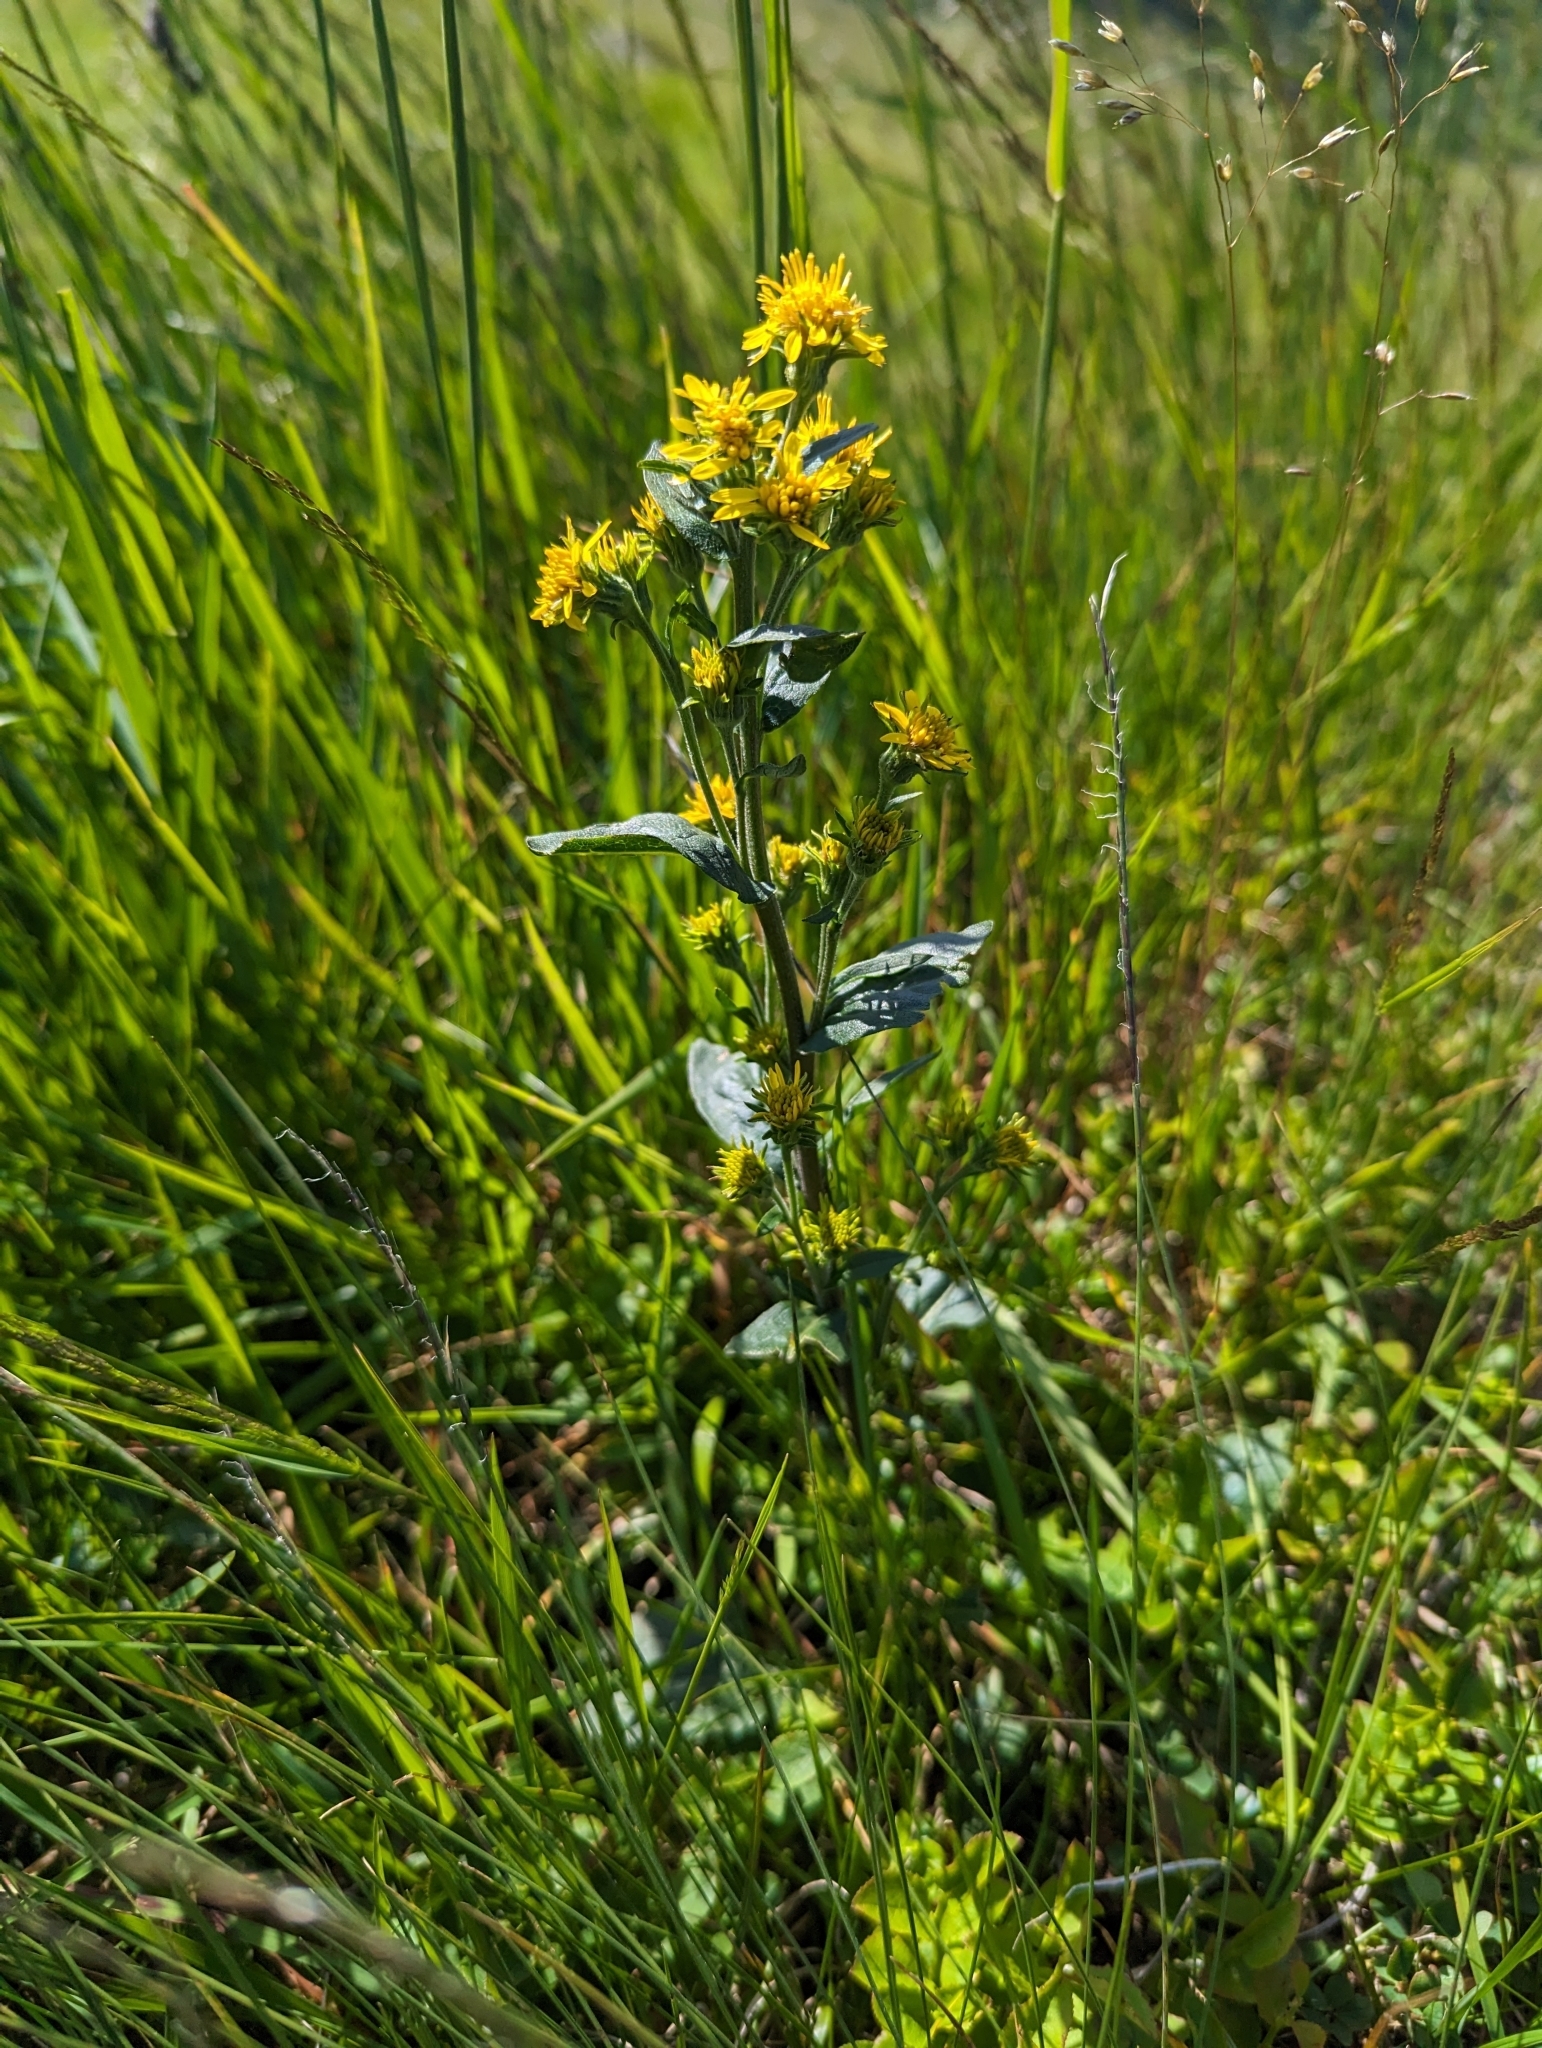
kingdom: Plantae
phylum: Tracheophyta
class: Magnoliopsida
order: Asterales
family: Asteraceae
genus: Solidago
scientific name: Solidago virgaurea
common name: Goldenrod
